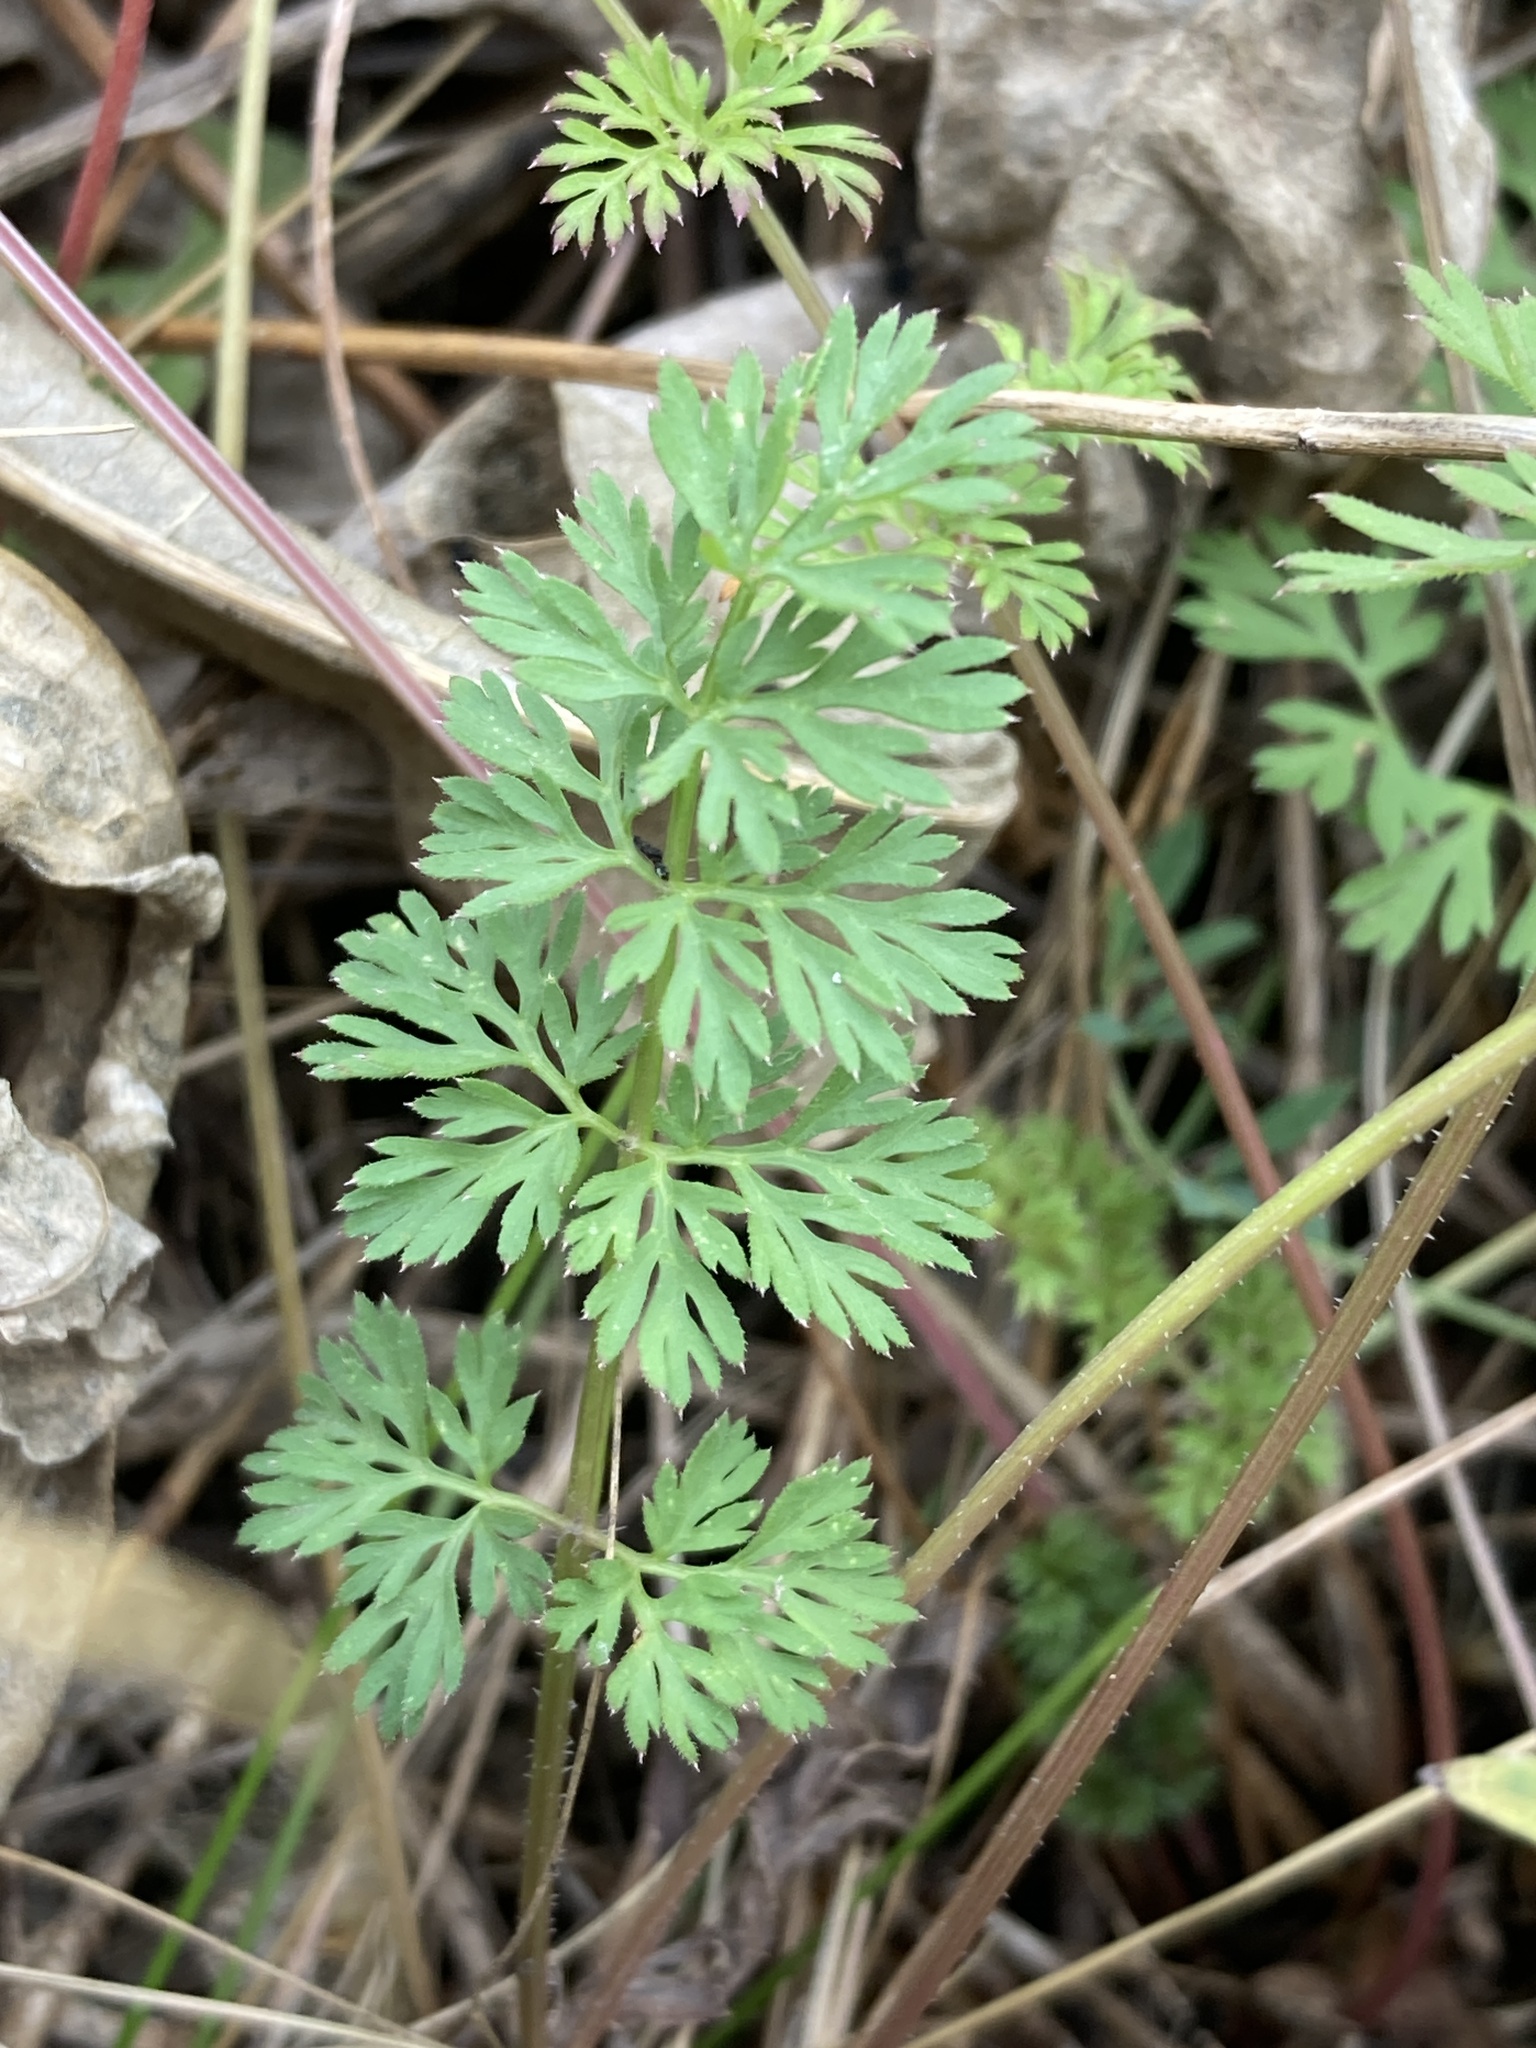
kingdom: Plantae
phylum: Tracheophyta
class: Magnoliopsida
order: Apiales
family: Apiaceae
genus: Daucus
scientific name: Daucus carota
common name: Wild carrot
